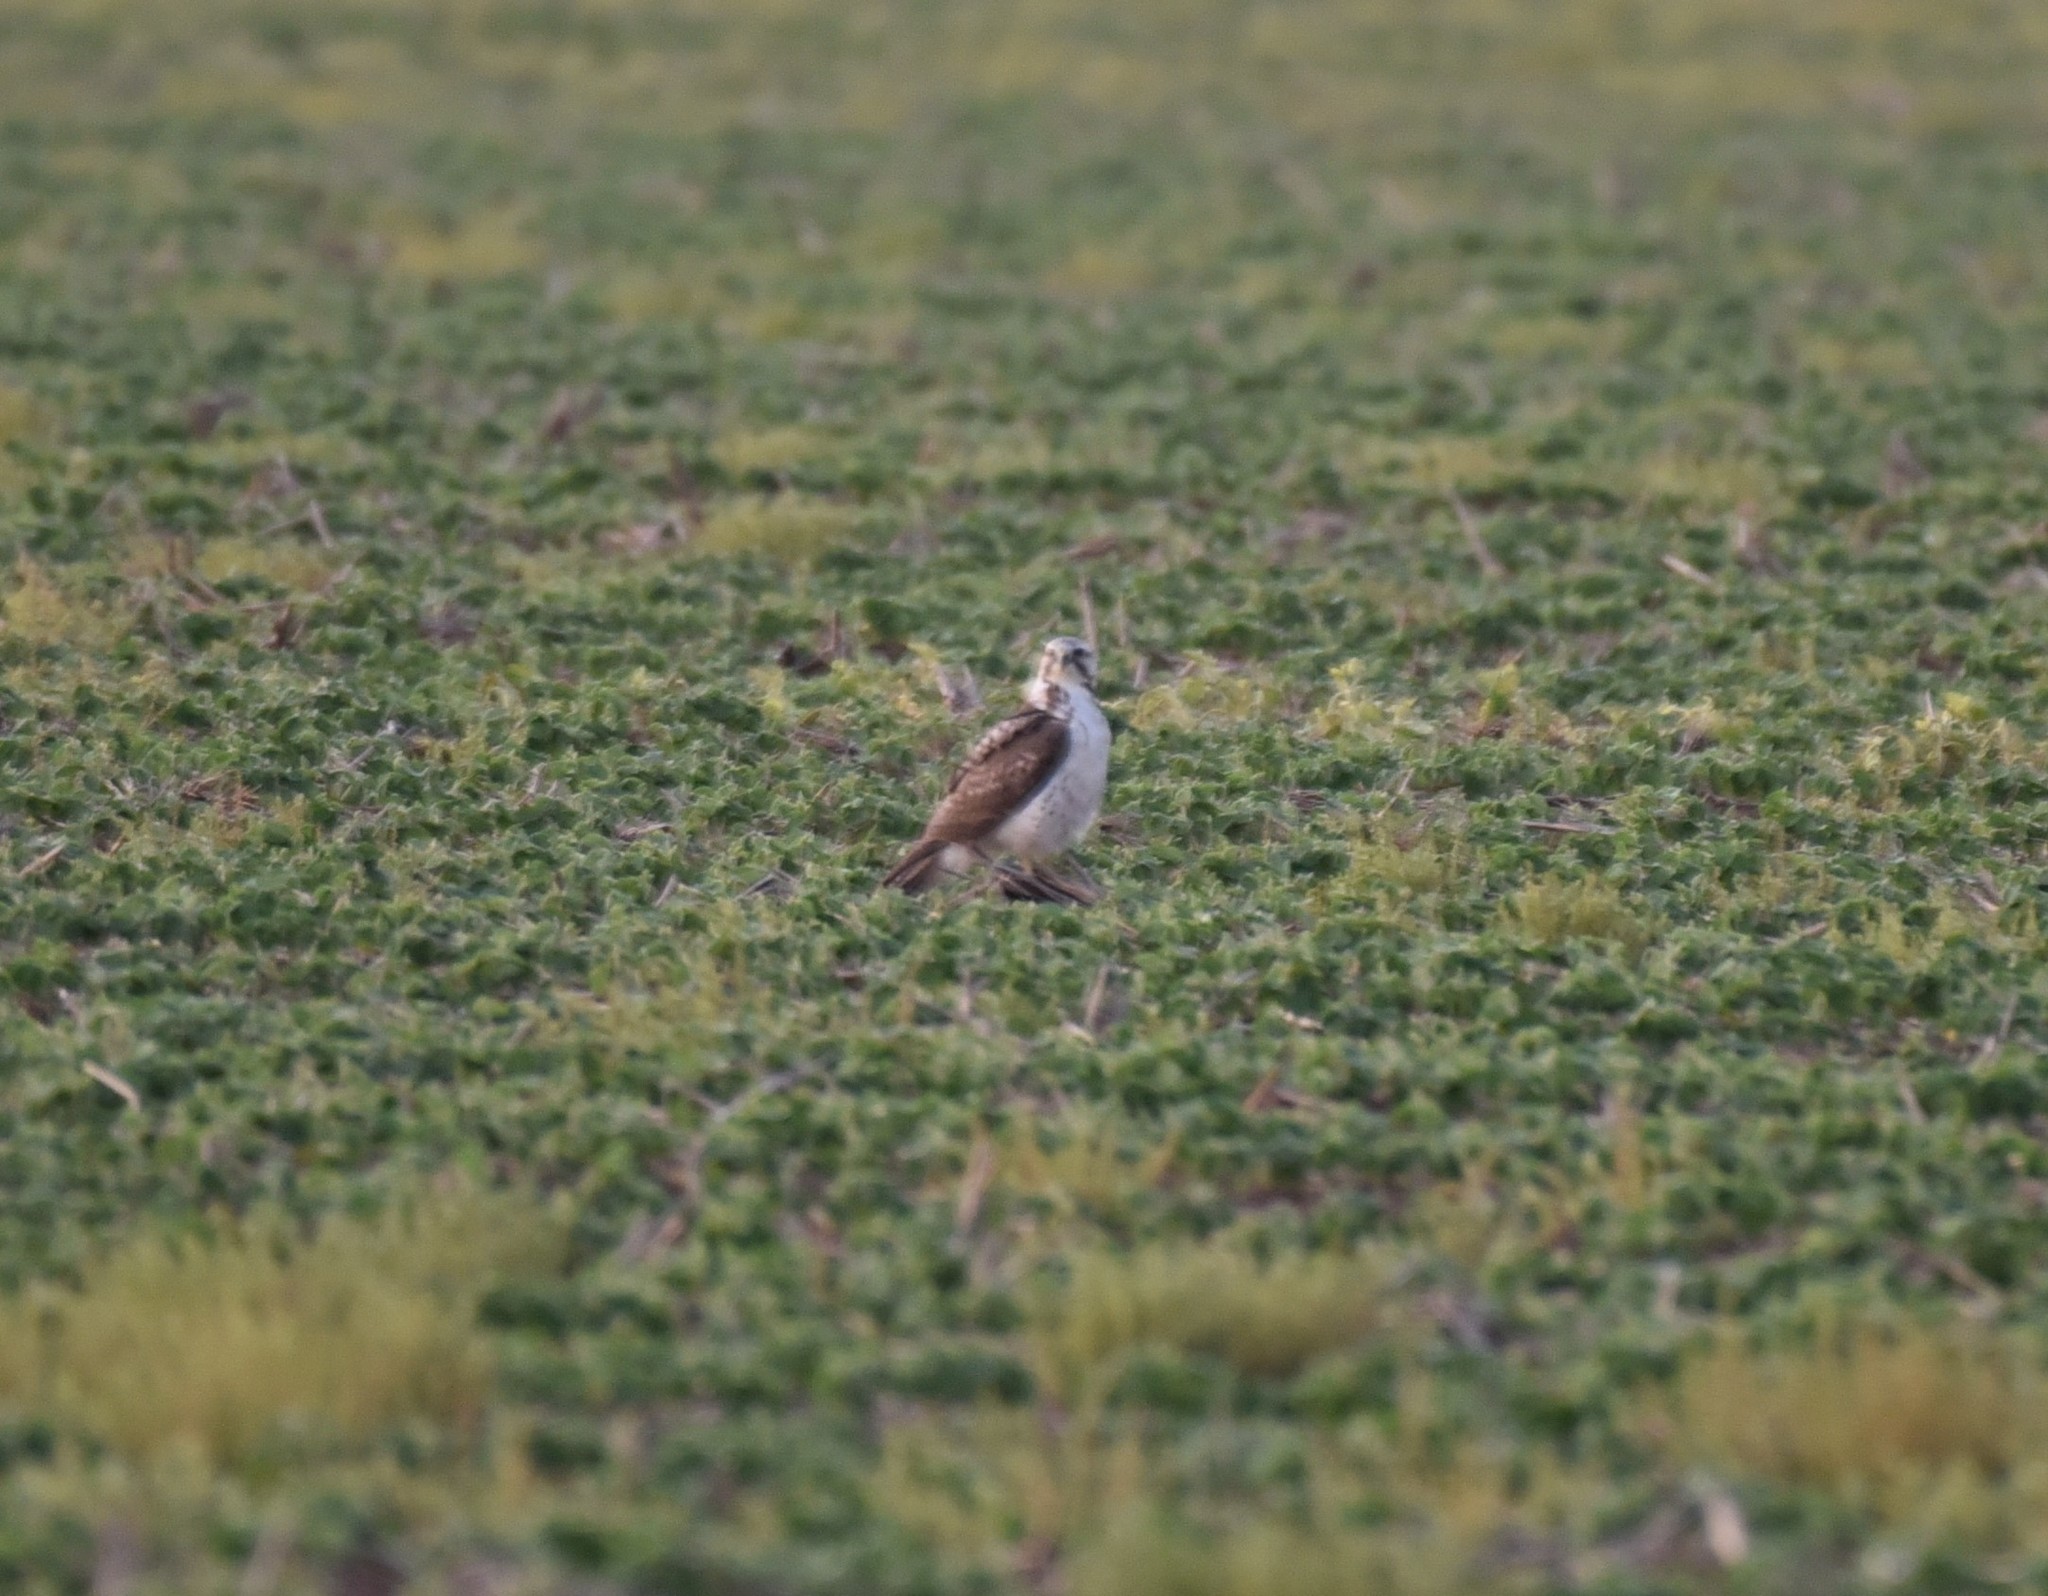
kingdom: Animalia
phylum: Chordata
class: Aves
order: Accipitriformes
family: Accipitridae
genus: Buteo
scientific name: Buteo swainsoni
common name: Swainson's hawk
